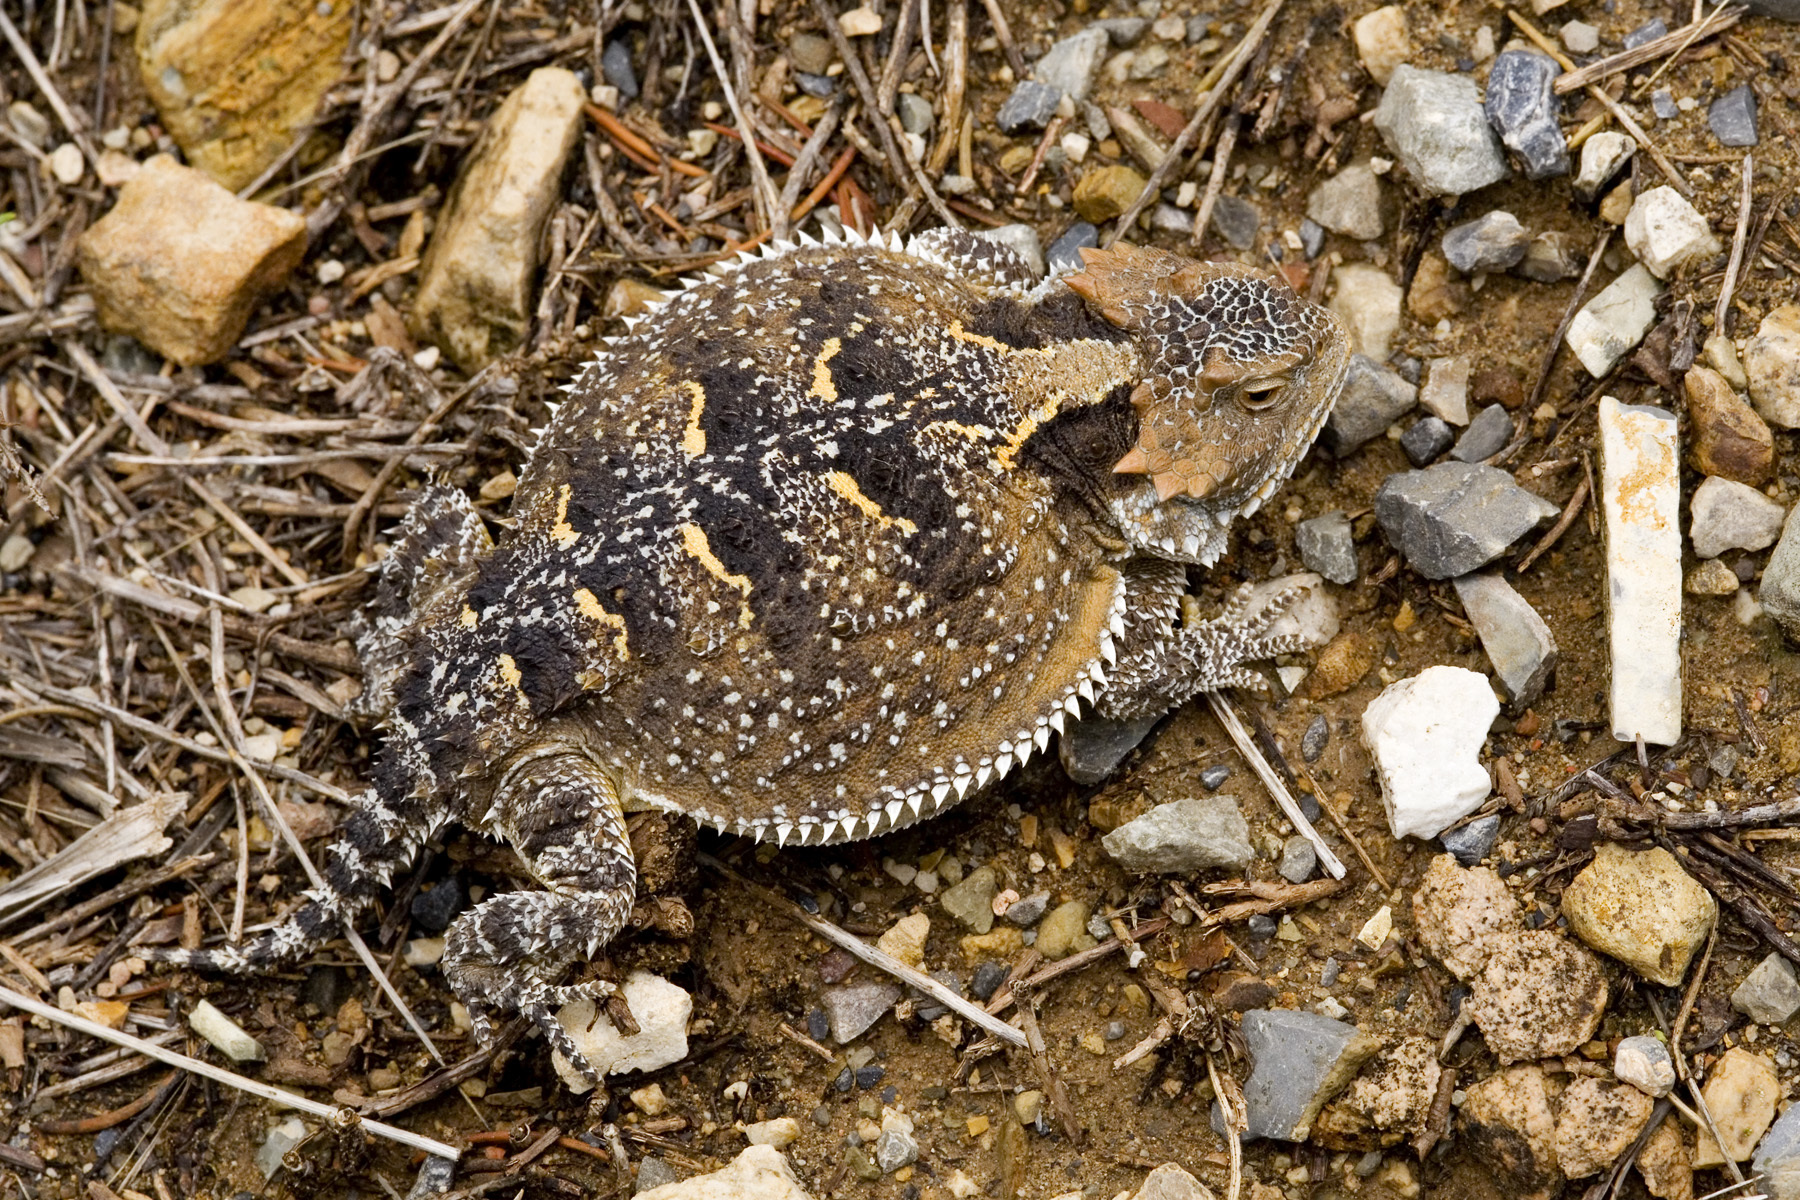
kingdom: Animalia
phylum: Chordata
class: Squamata
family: Phrynosomatidae
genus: Phrynosoma
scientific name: Phrynosoma hernandesi
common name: Greater short-horned lizard
